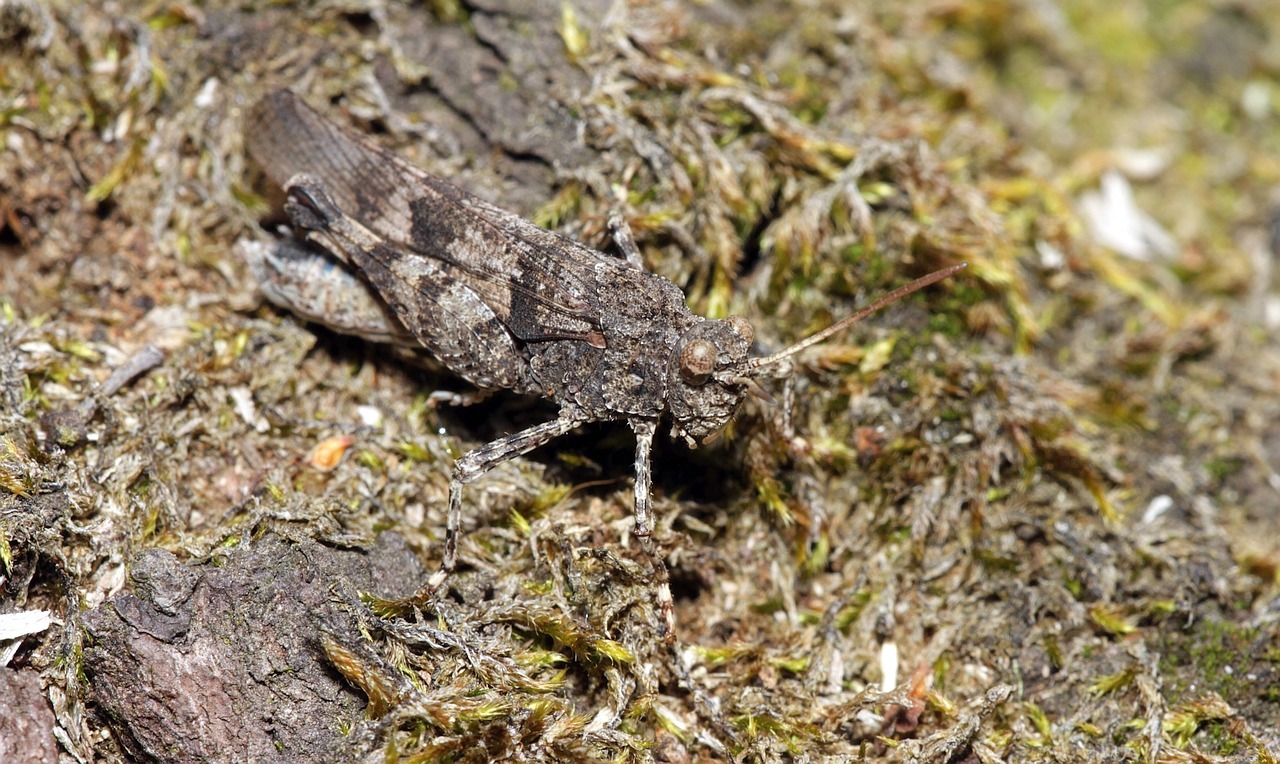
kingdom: Animalia
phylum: Arthropoda
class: Insecta
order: Orthoptera
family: Acrididae
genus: Oedipoda
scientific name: Oedipoda caerulescens
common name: Blue-winged grasshopper
